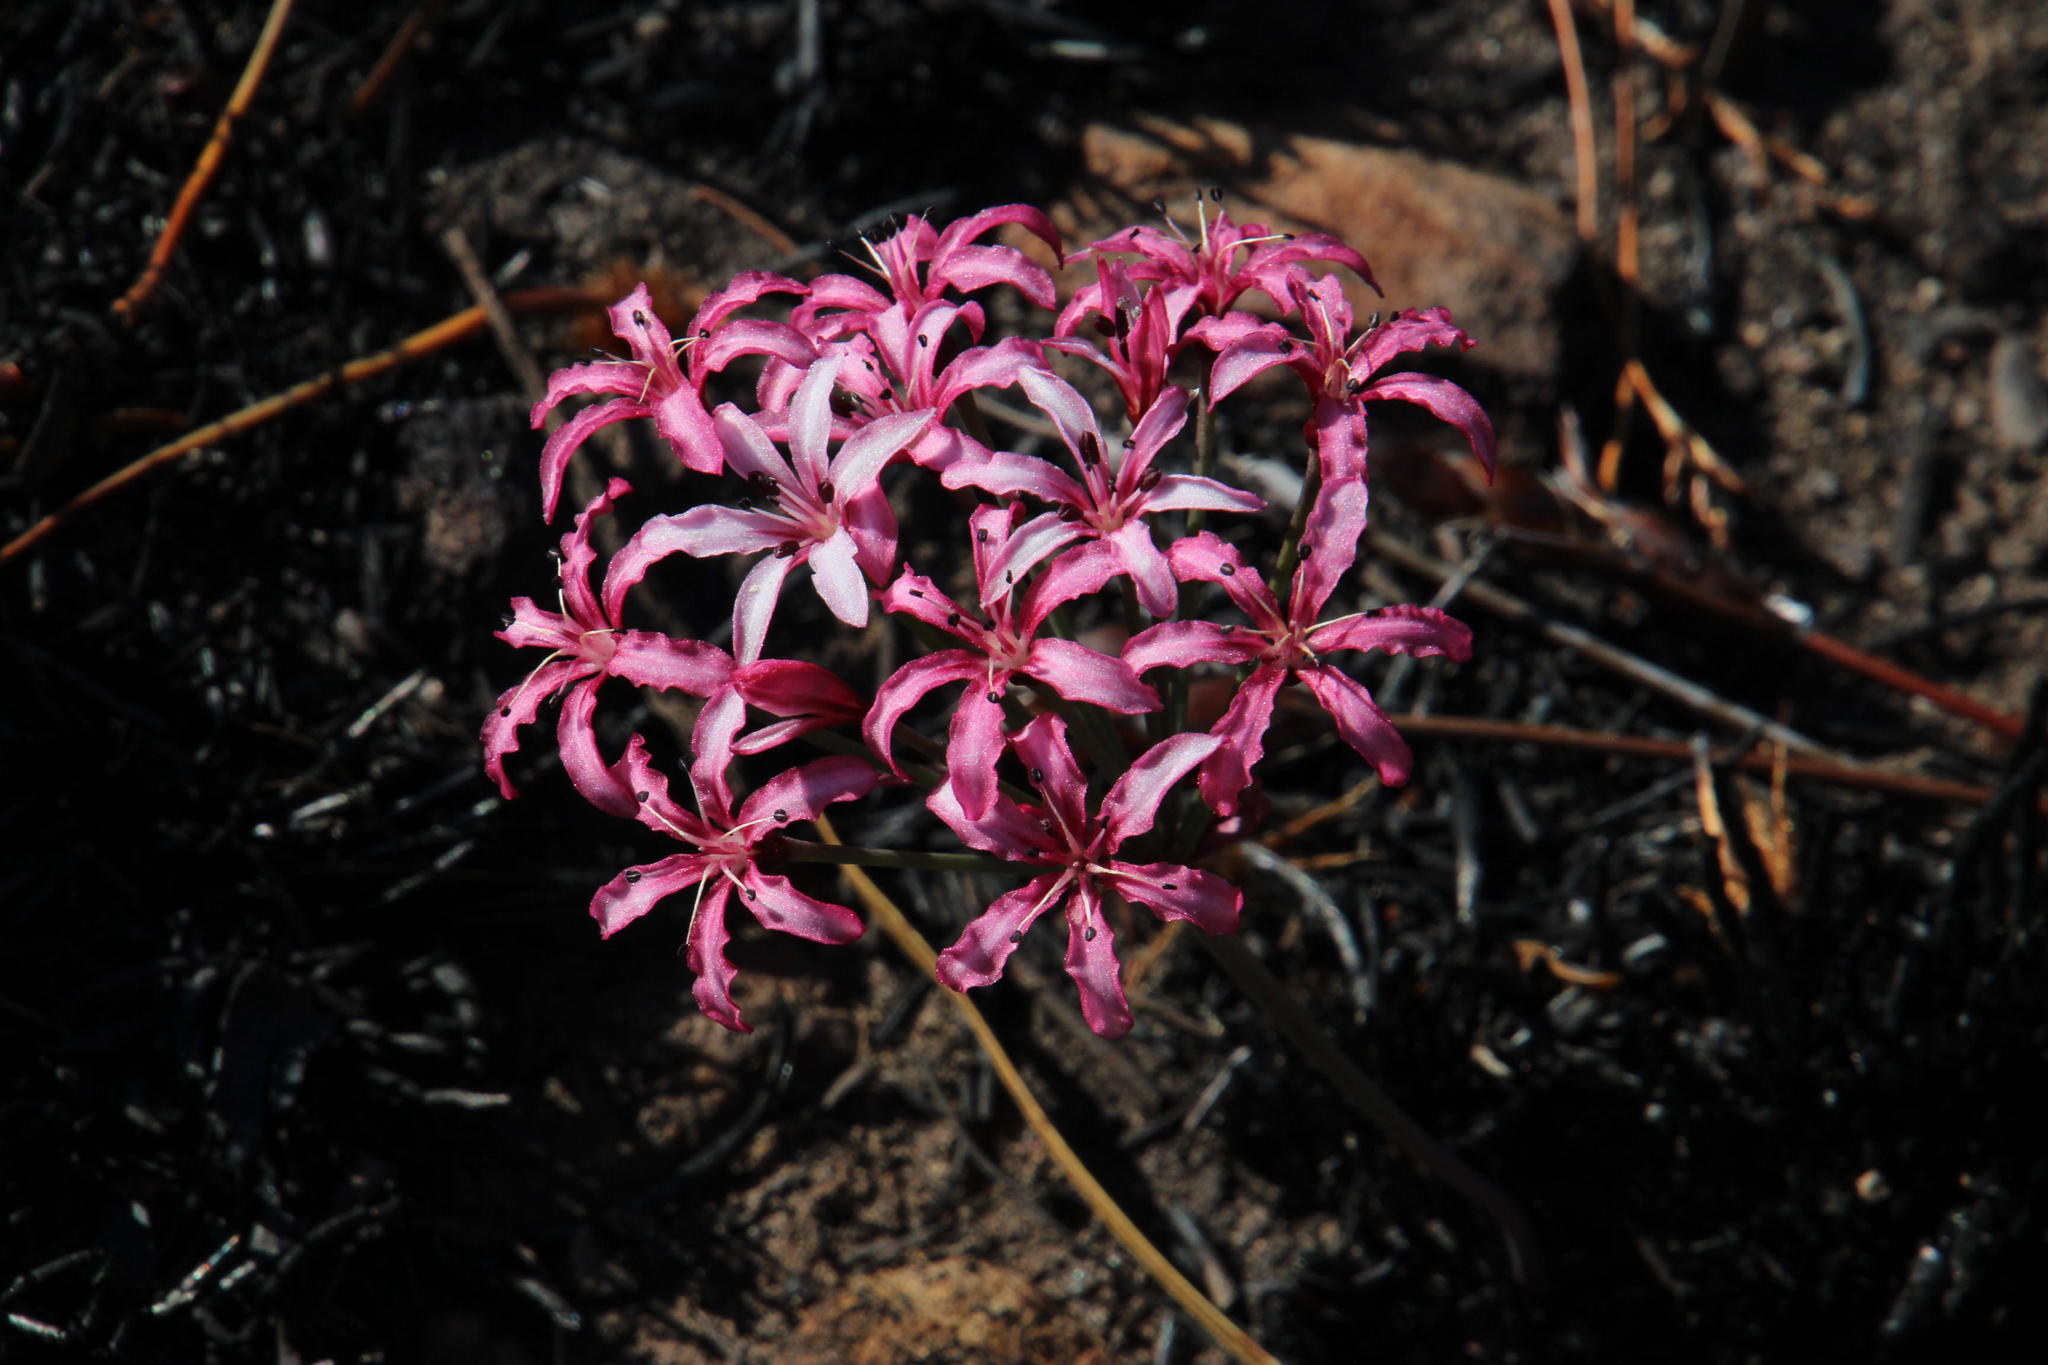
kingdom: Plantae
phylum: Tracheophyta
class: Liliopsida
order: Asparagales
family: Amaryllidaceae
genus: Hessea
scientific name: Hessea monticola
